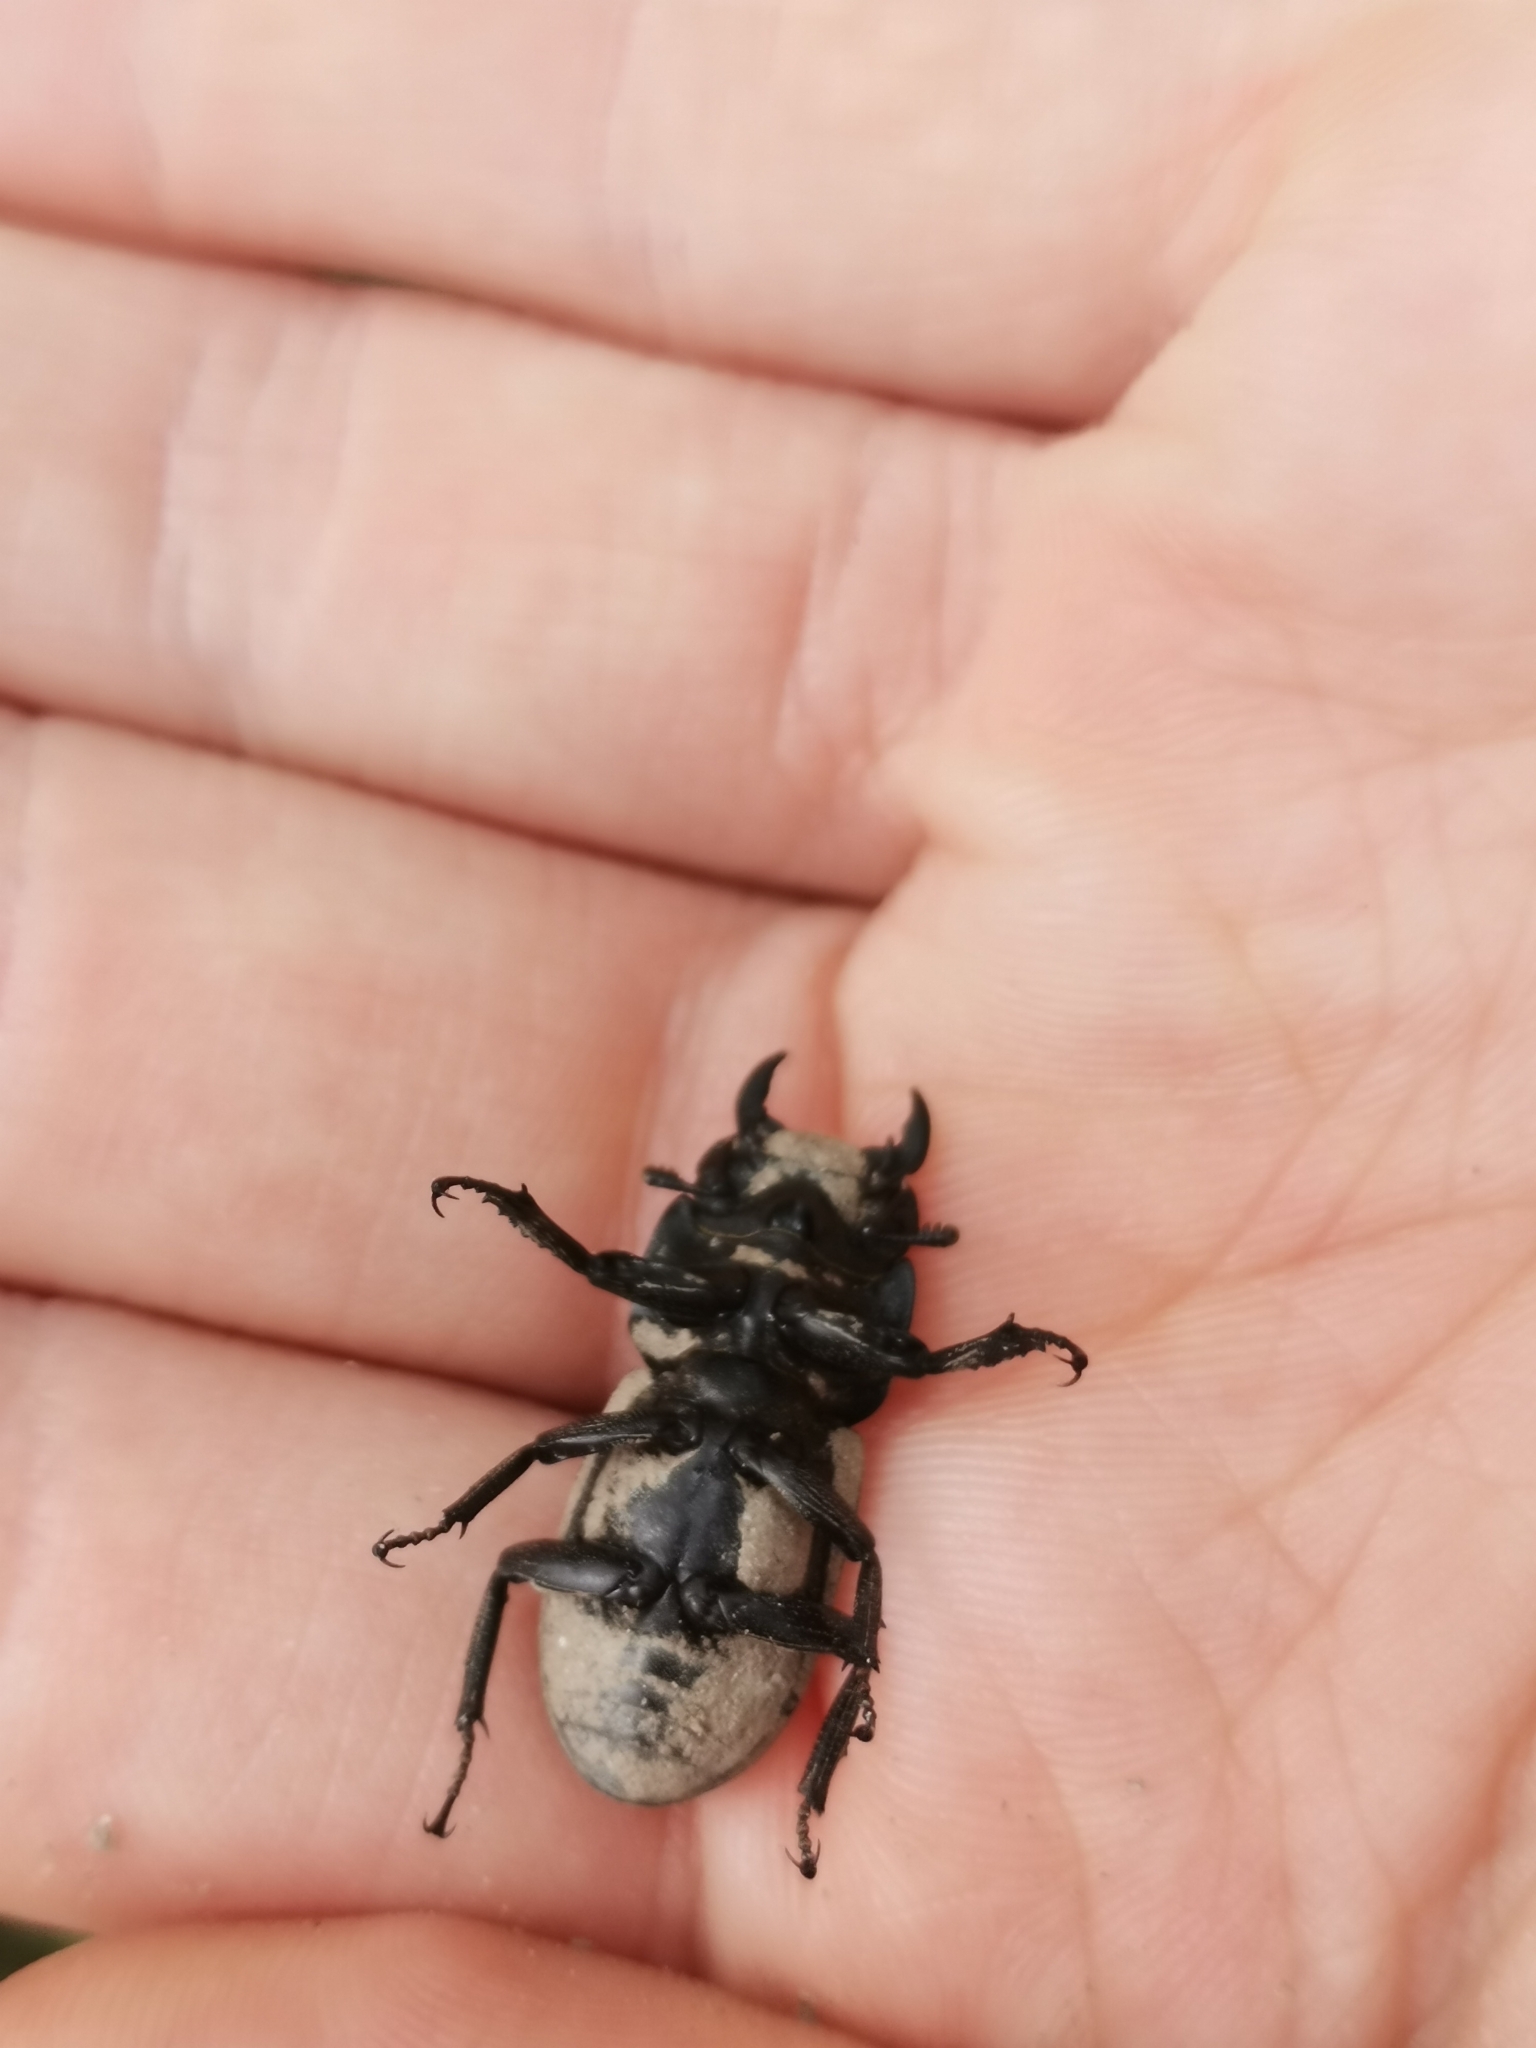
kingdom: Animalia
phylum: Arthropoda
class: Insecta
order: Coleoptera
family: Lucanidae
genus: Dorcus
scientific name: Dorcus parallelipipedus
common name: Lesser stag beetle
